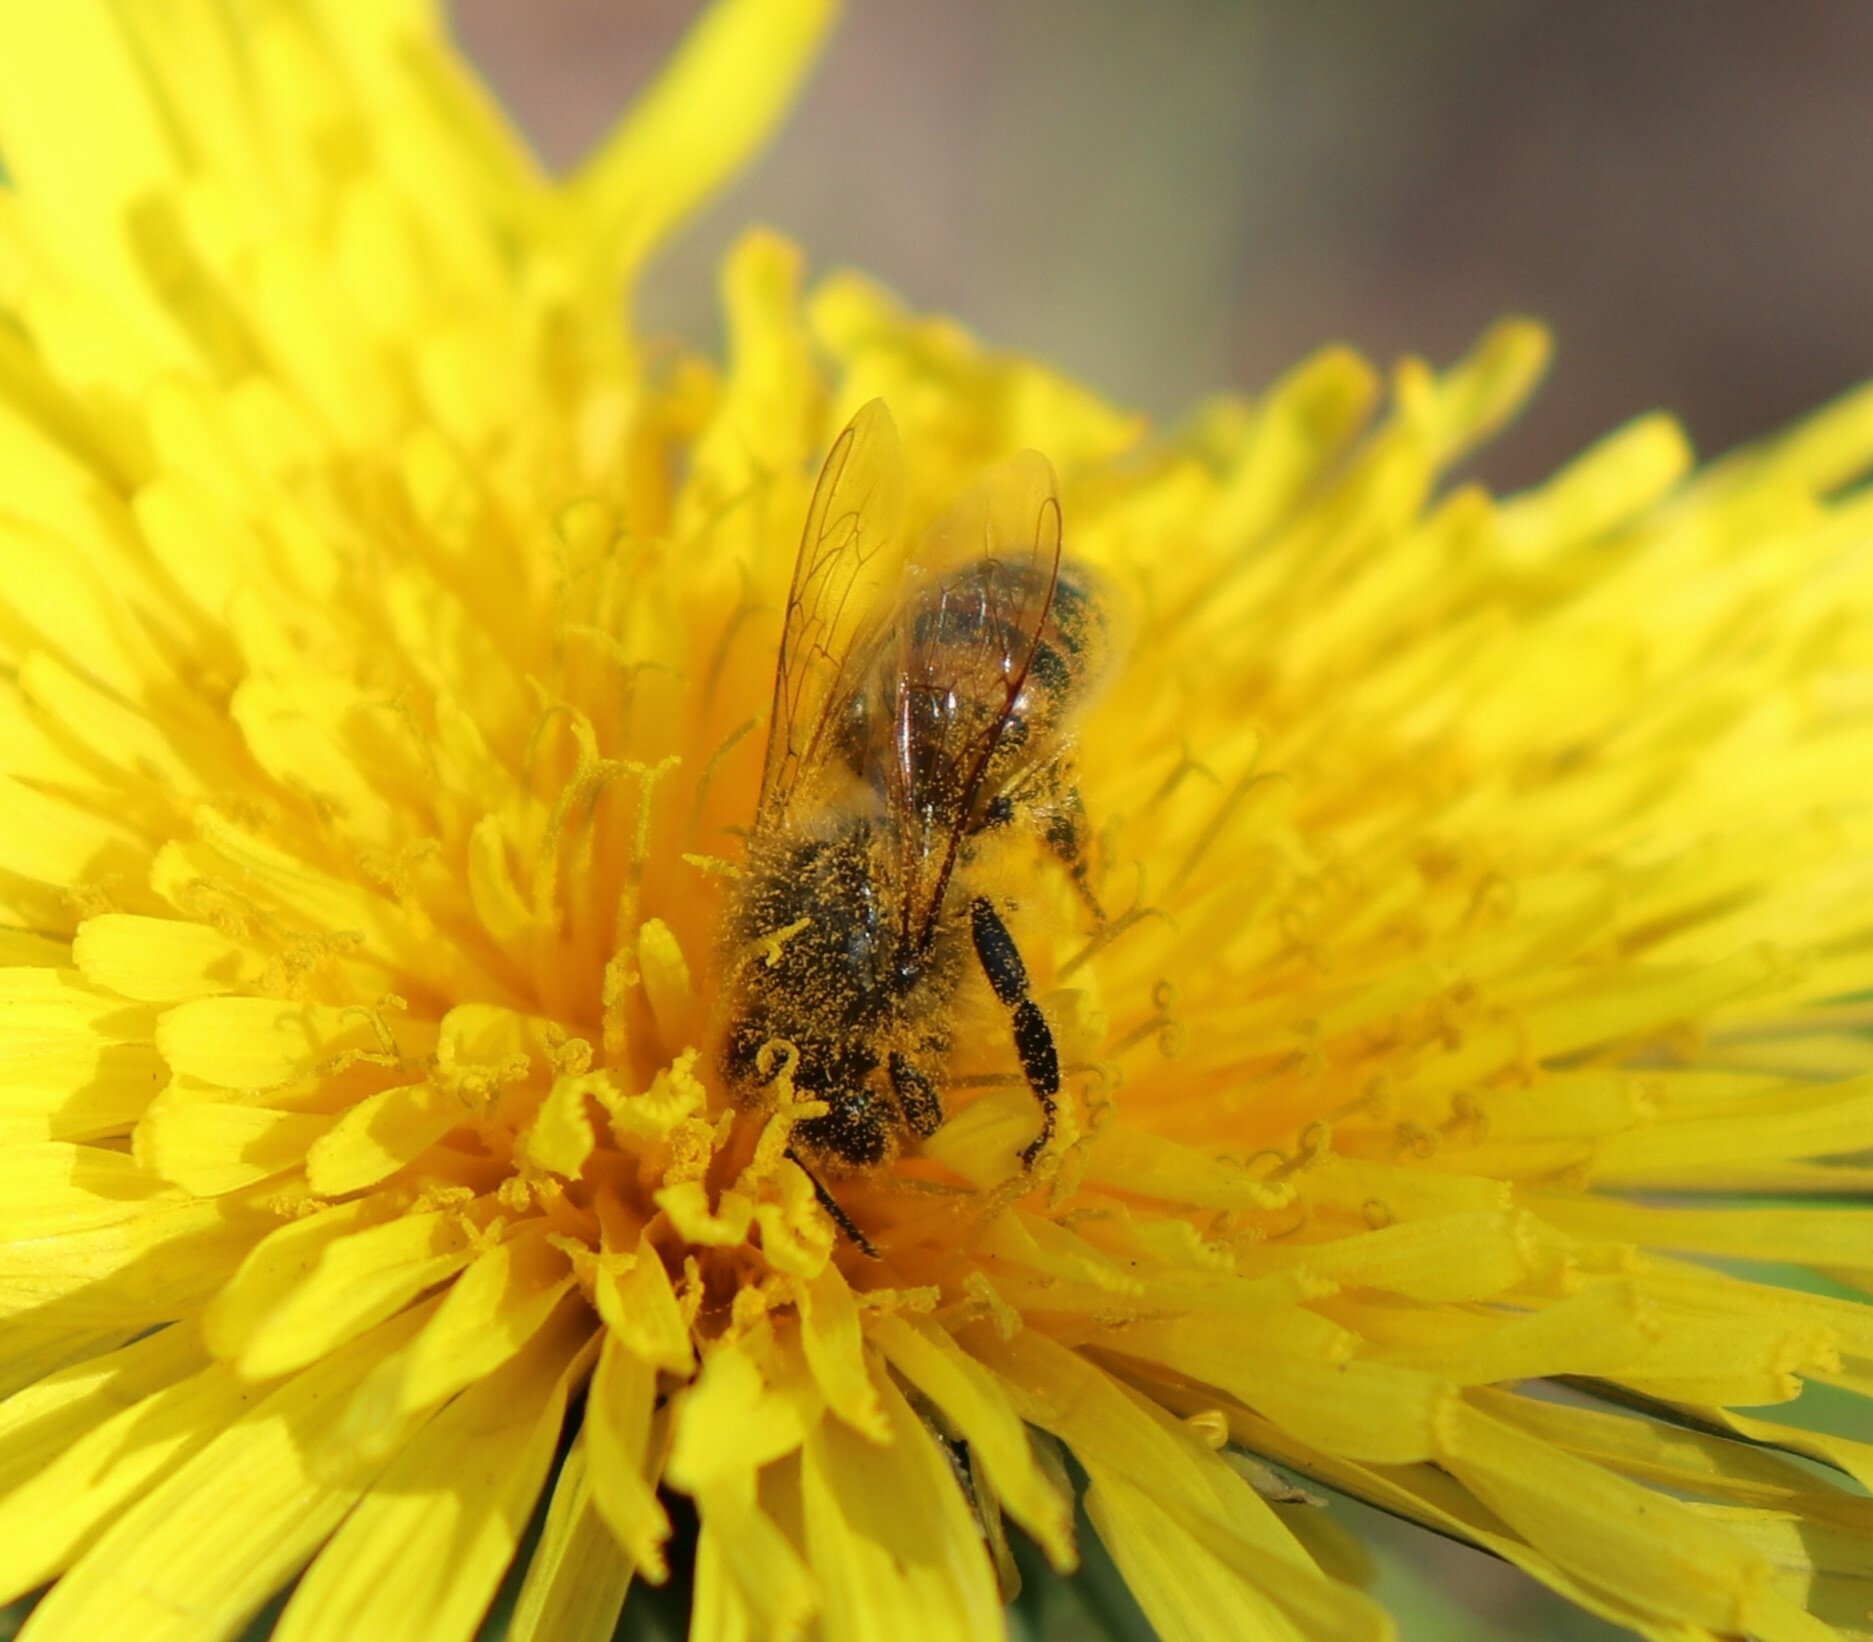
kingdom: Animalia
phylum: Arthropoda
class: Insecta
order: Hymenoptera
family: Apidae
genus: Apis
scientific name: Apis mellifera
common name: Honey bee
